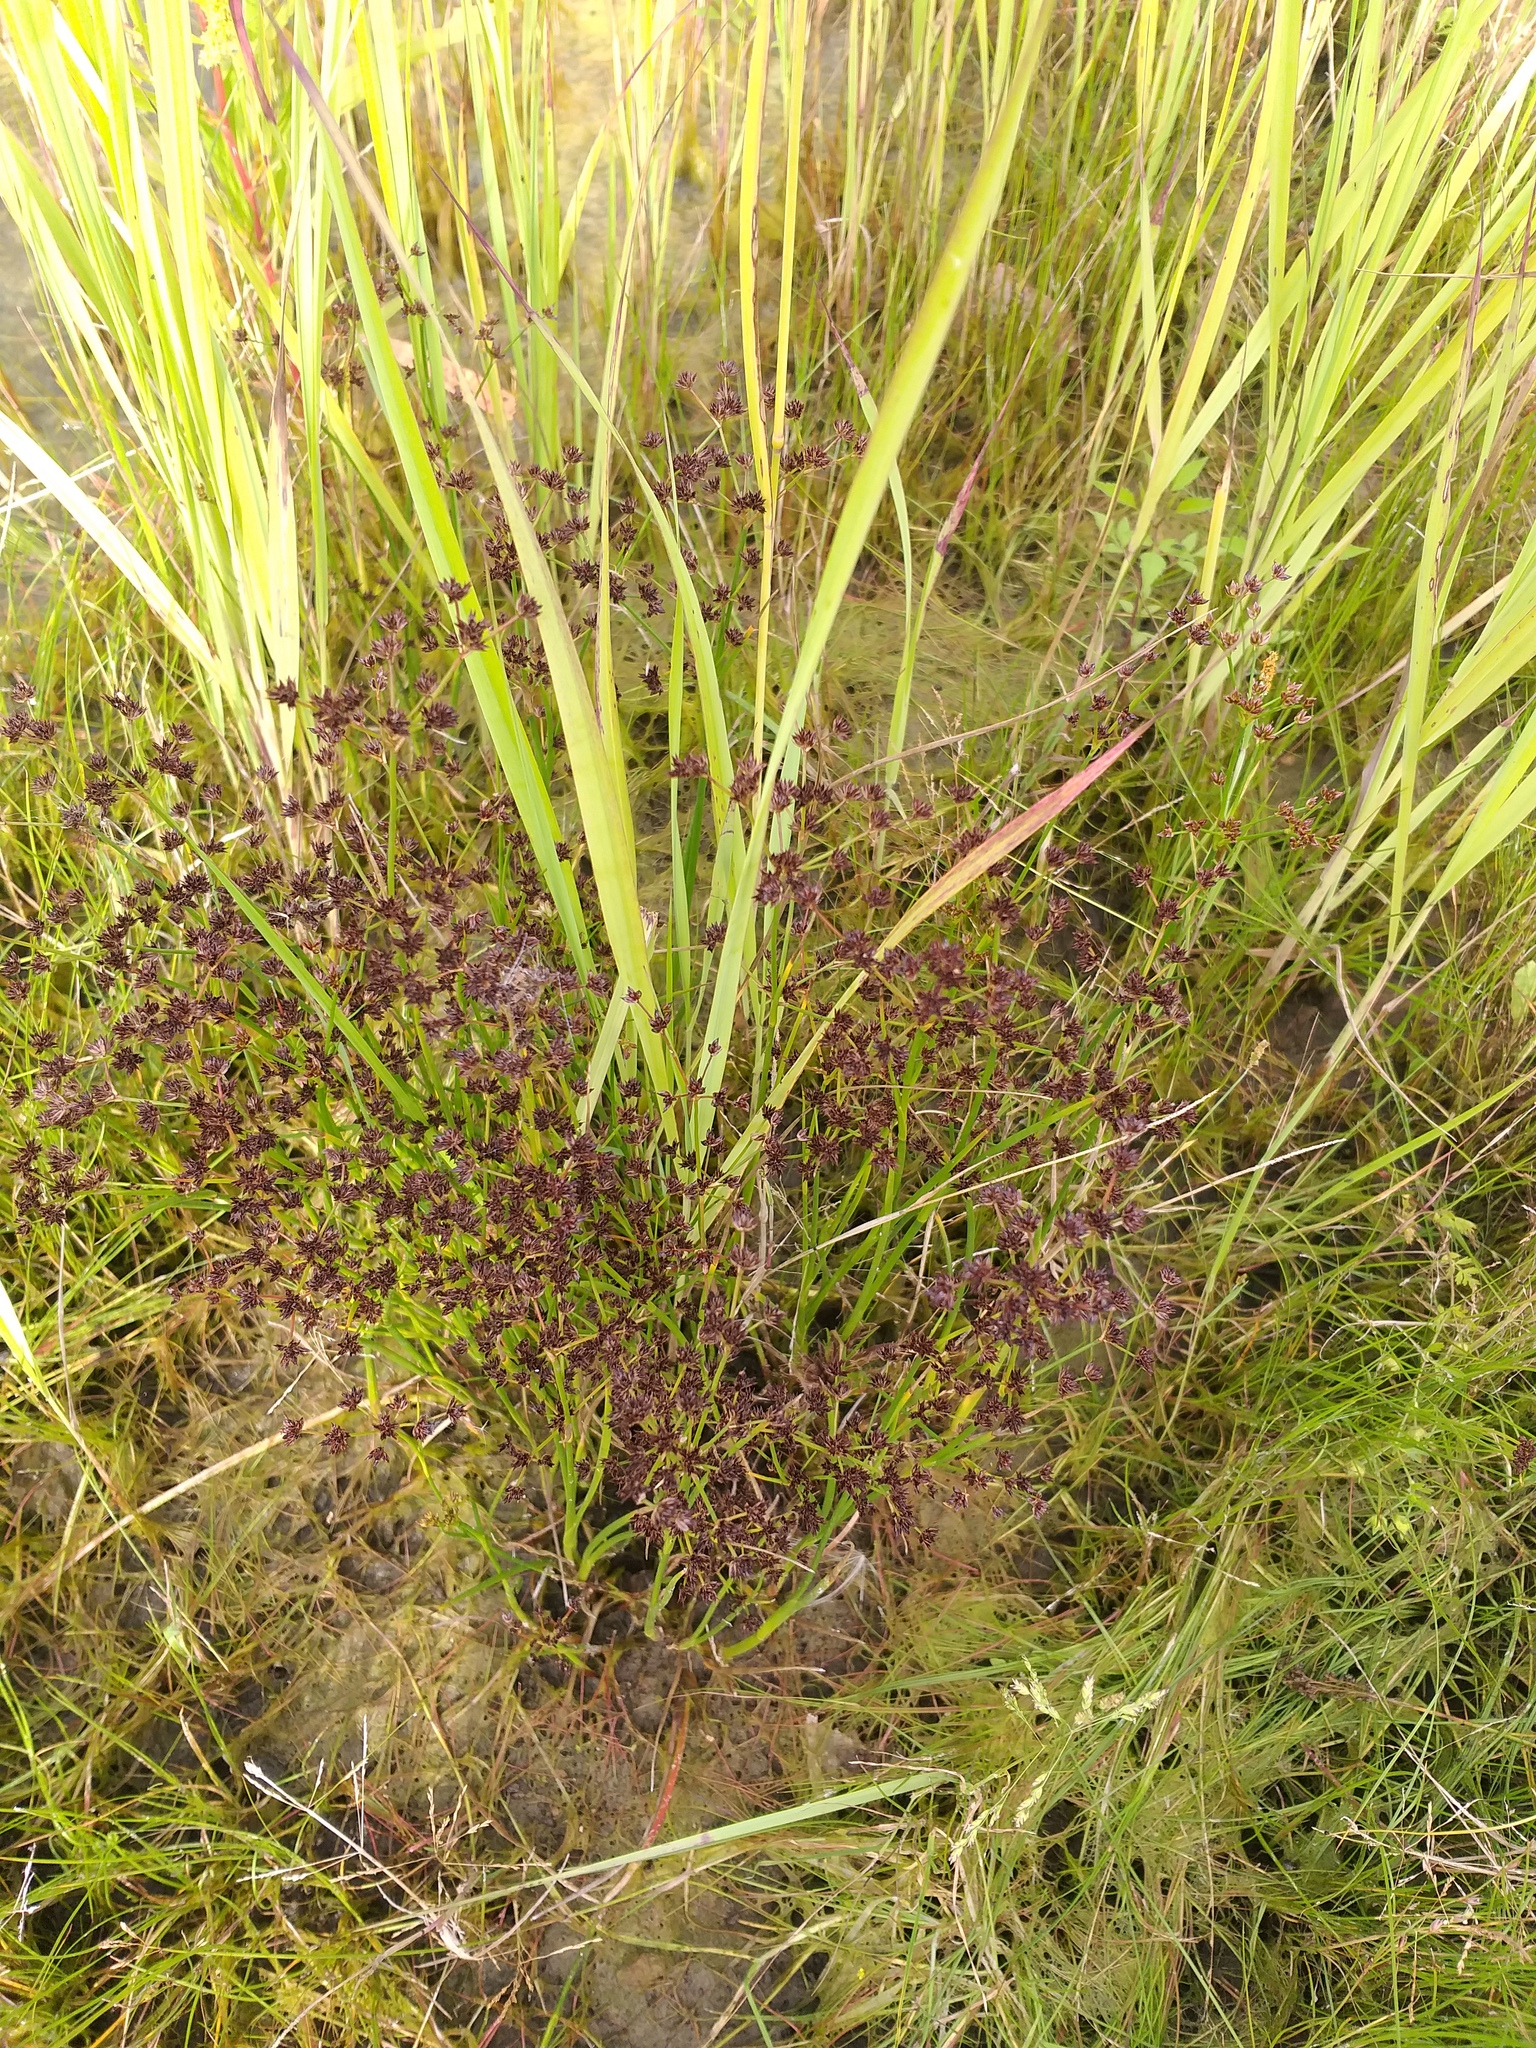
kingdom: Plantae
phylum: Tracheophyta
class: Liliopsida
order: Poales
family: Juncaceae
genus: Juncus
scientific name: Juncus articulatus
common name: Jointed rush
